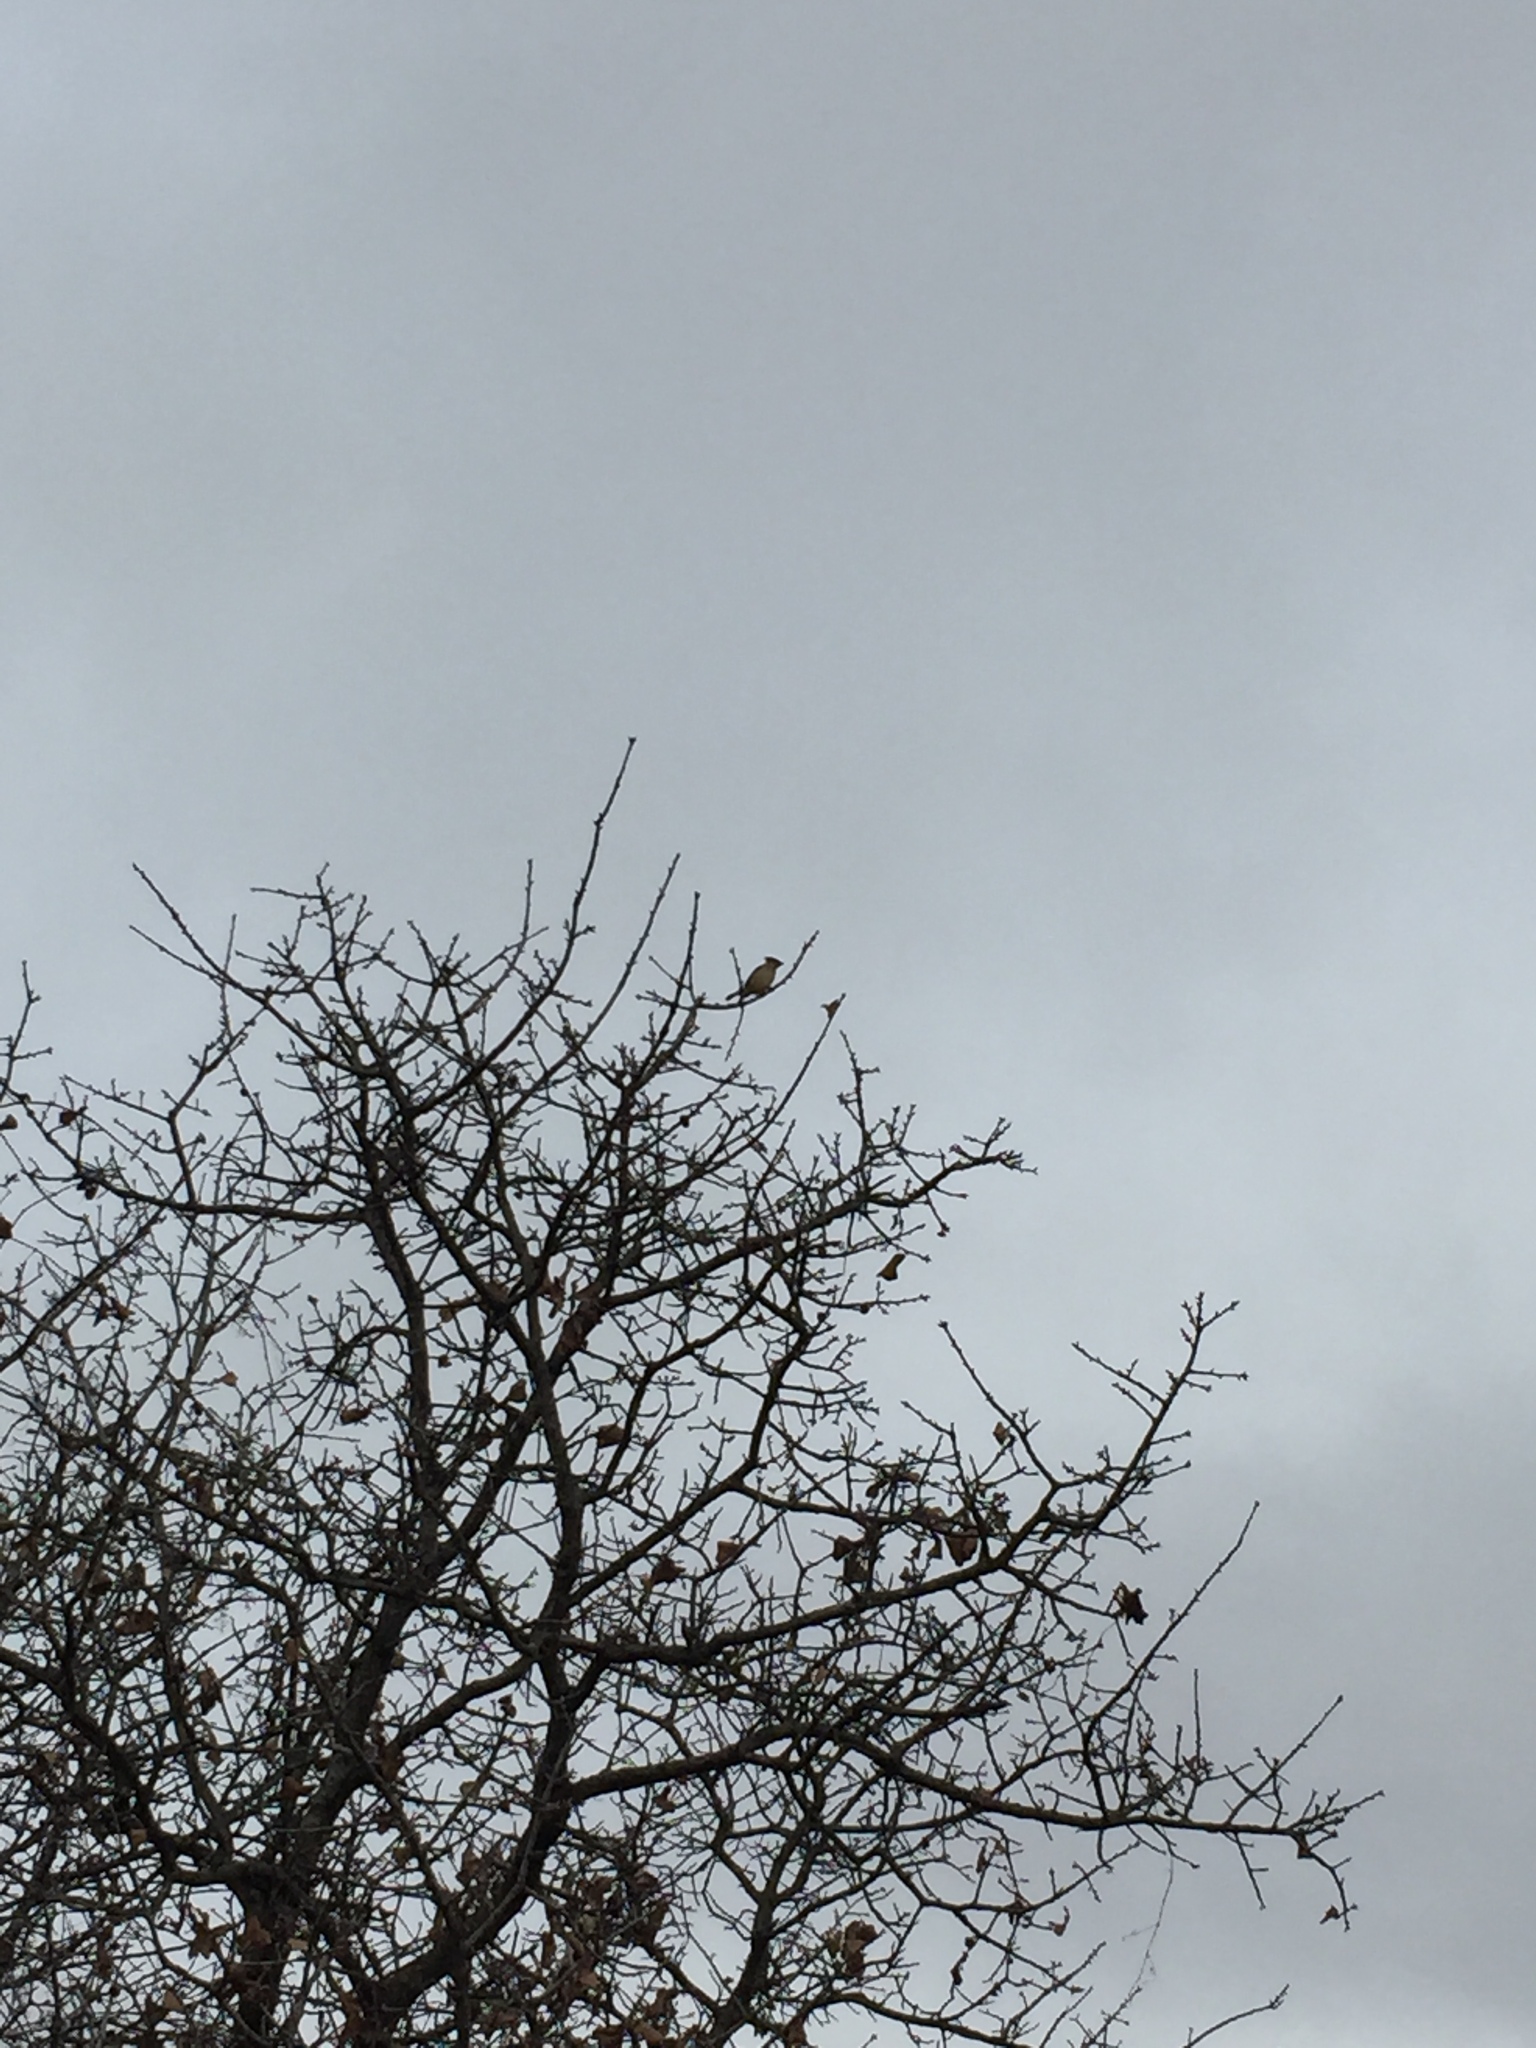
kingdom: Animalia
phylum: Chordata
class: Aves
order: Passeriformes
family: Bombycillidae
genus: Bombycilla
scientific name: Bombycilla cedrorum
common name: Cedar waxwing
